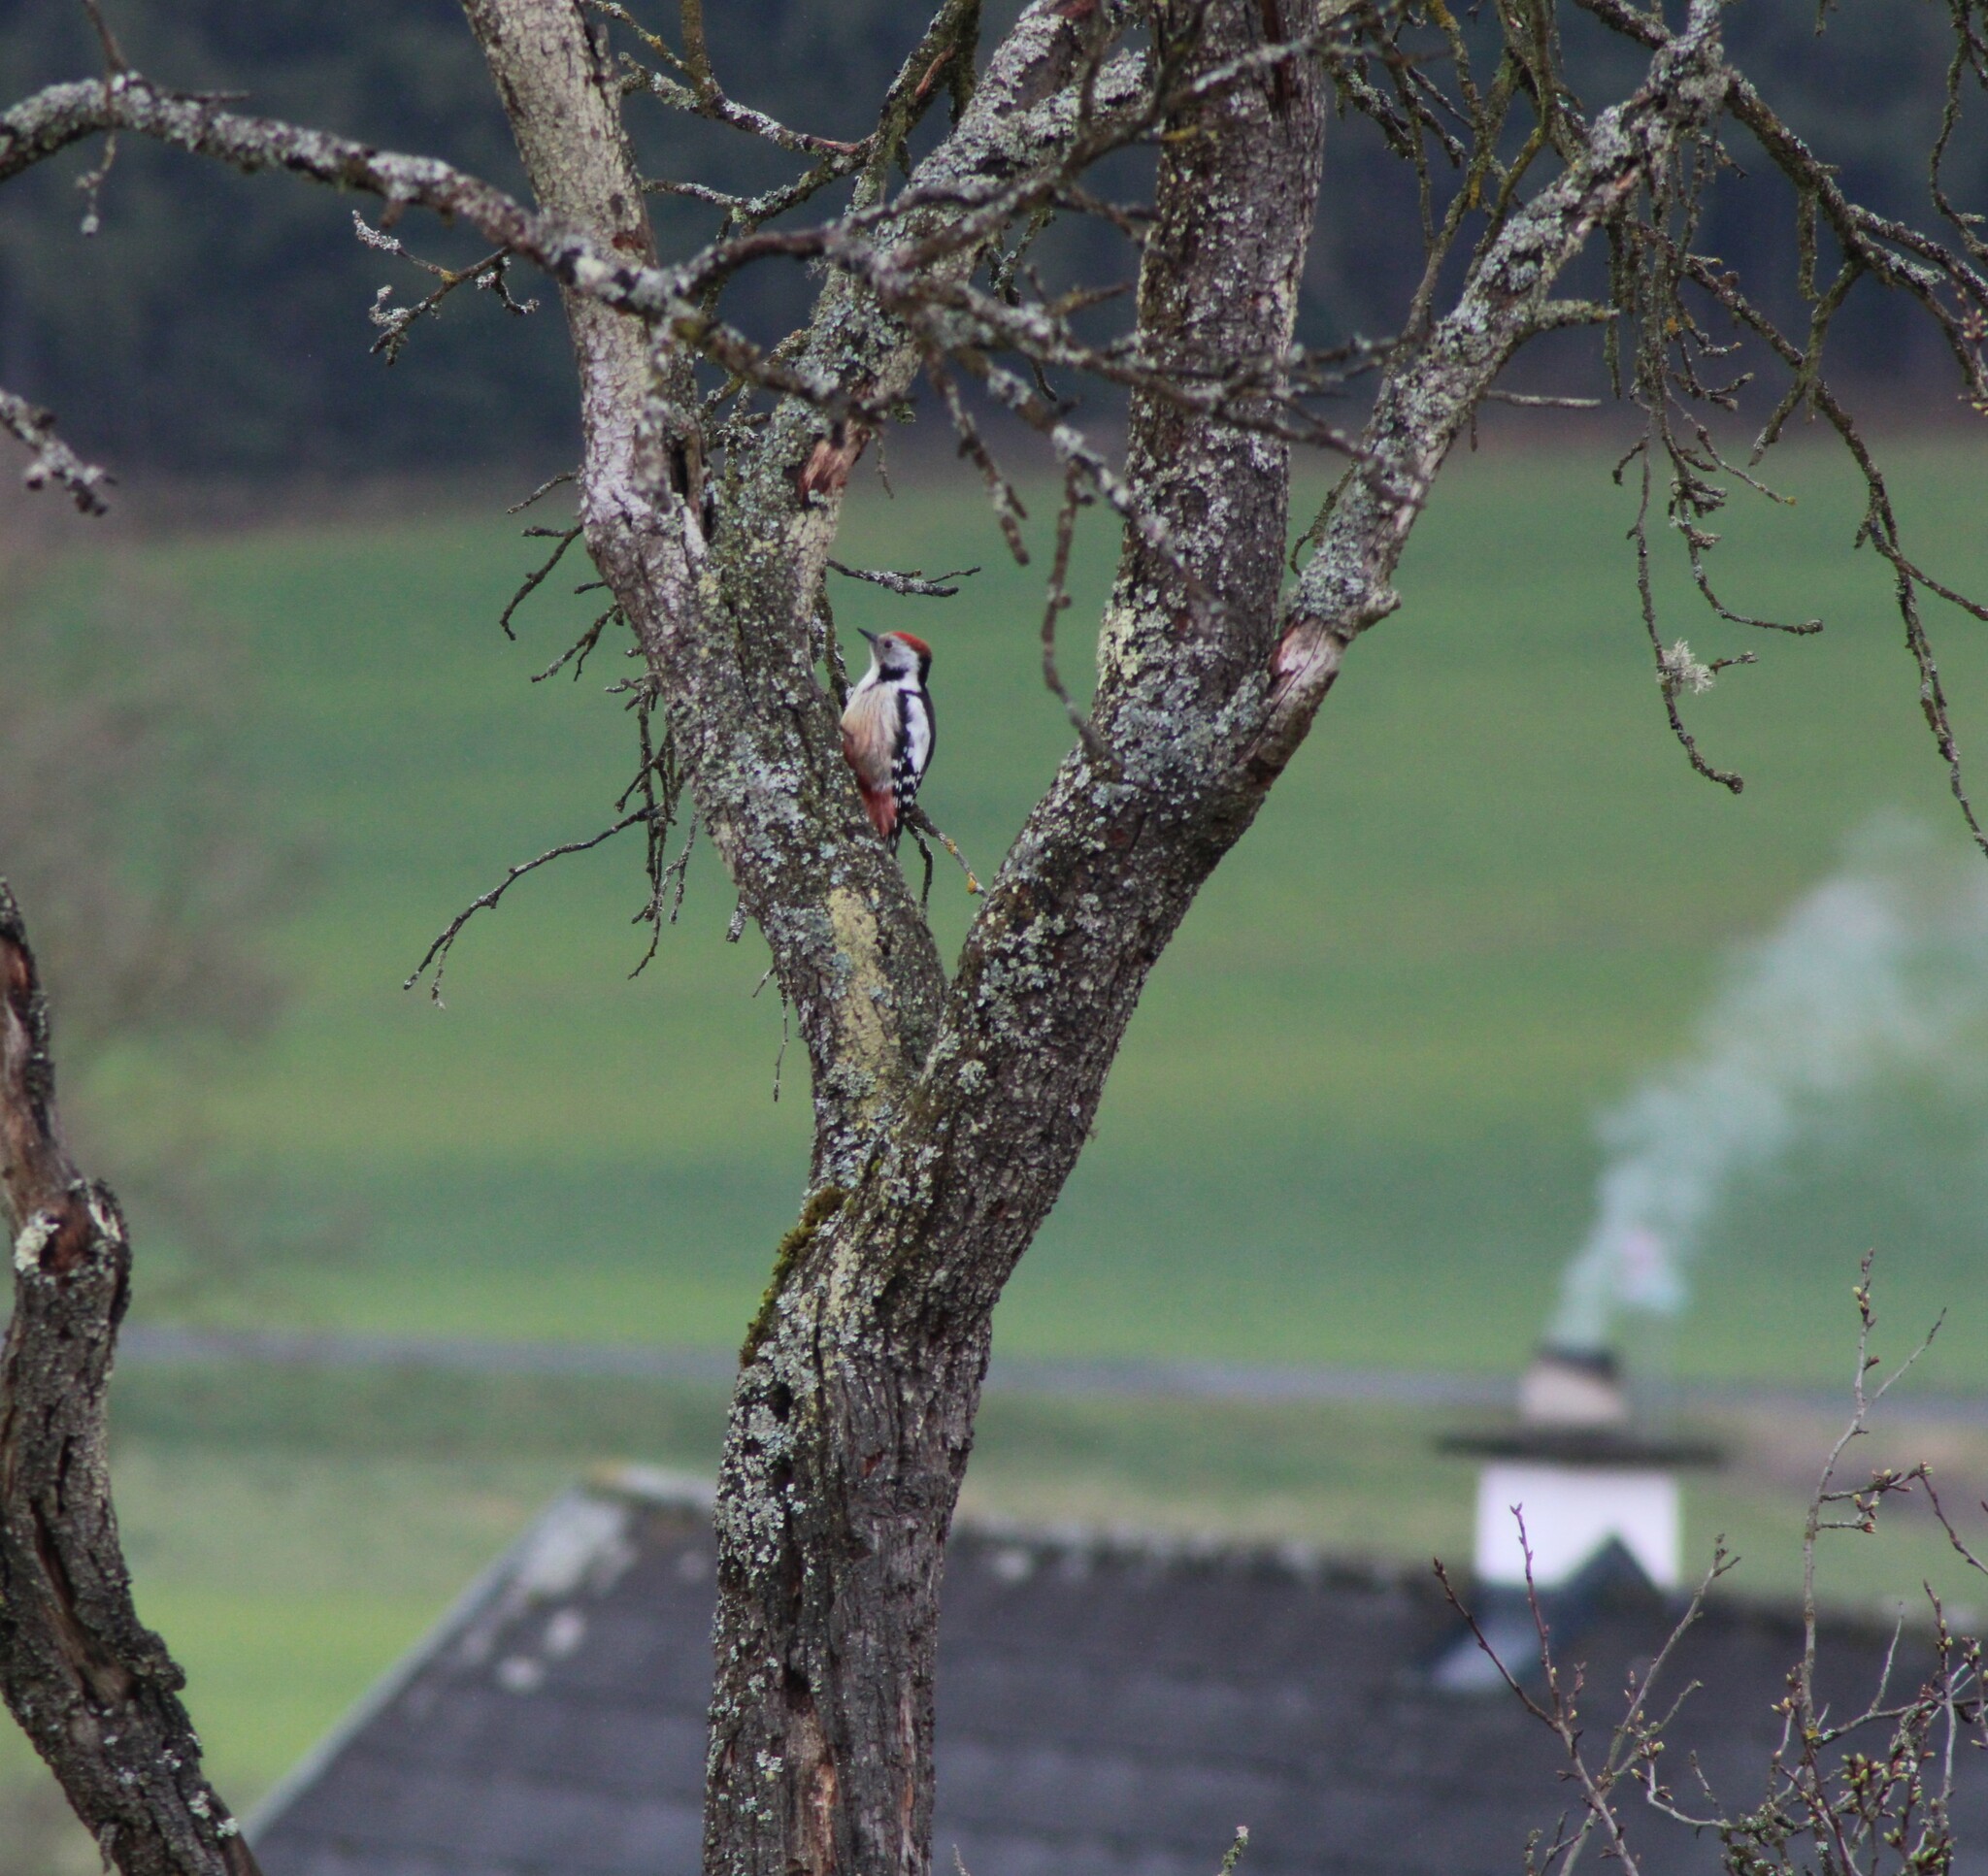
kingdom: Animalia
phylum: Chordata
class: Aves
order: Piciformes
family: Picidae
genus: Dendrocoptes
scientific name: Dendrocoptes medius
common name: Middle spotted woodpecker
